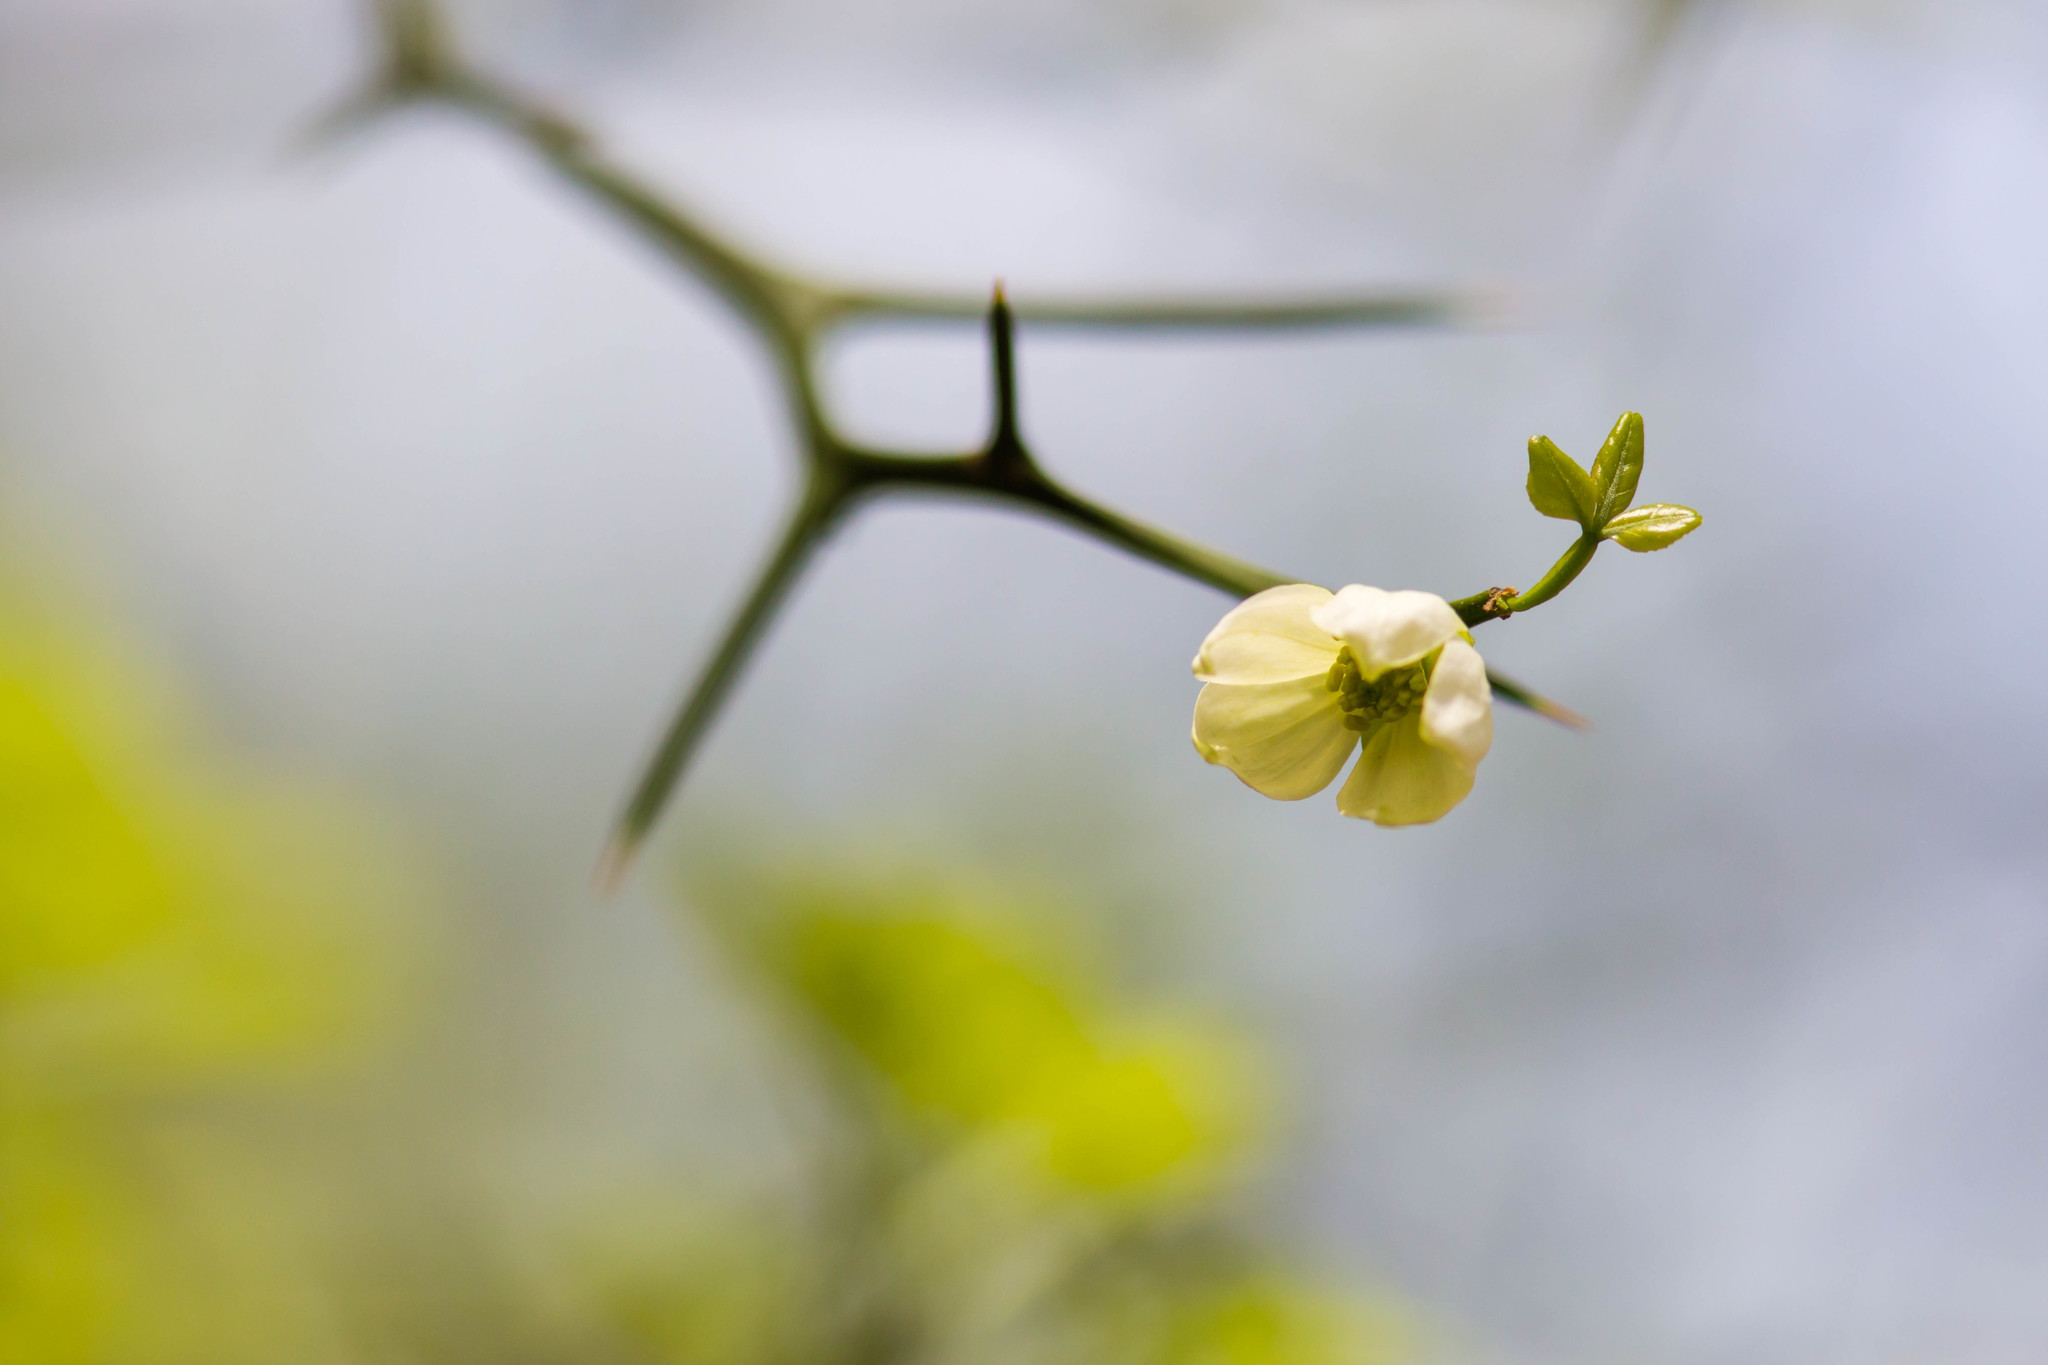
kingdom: Plantae
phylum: Tracheophyta
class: Magnoliopsida
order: Sapindales
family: Rutaceae
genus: Citrus
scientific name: Citrus trifoliata
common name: Japanese bitter-orange
